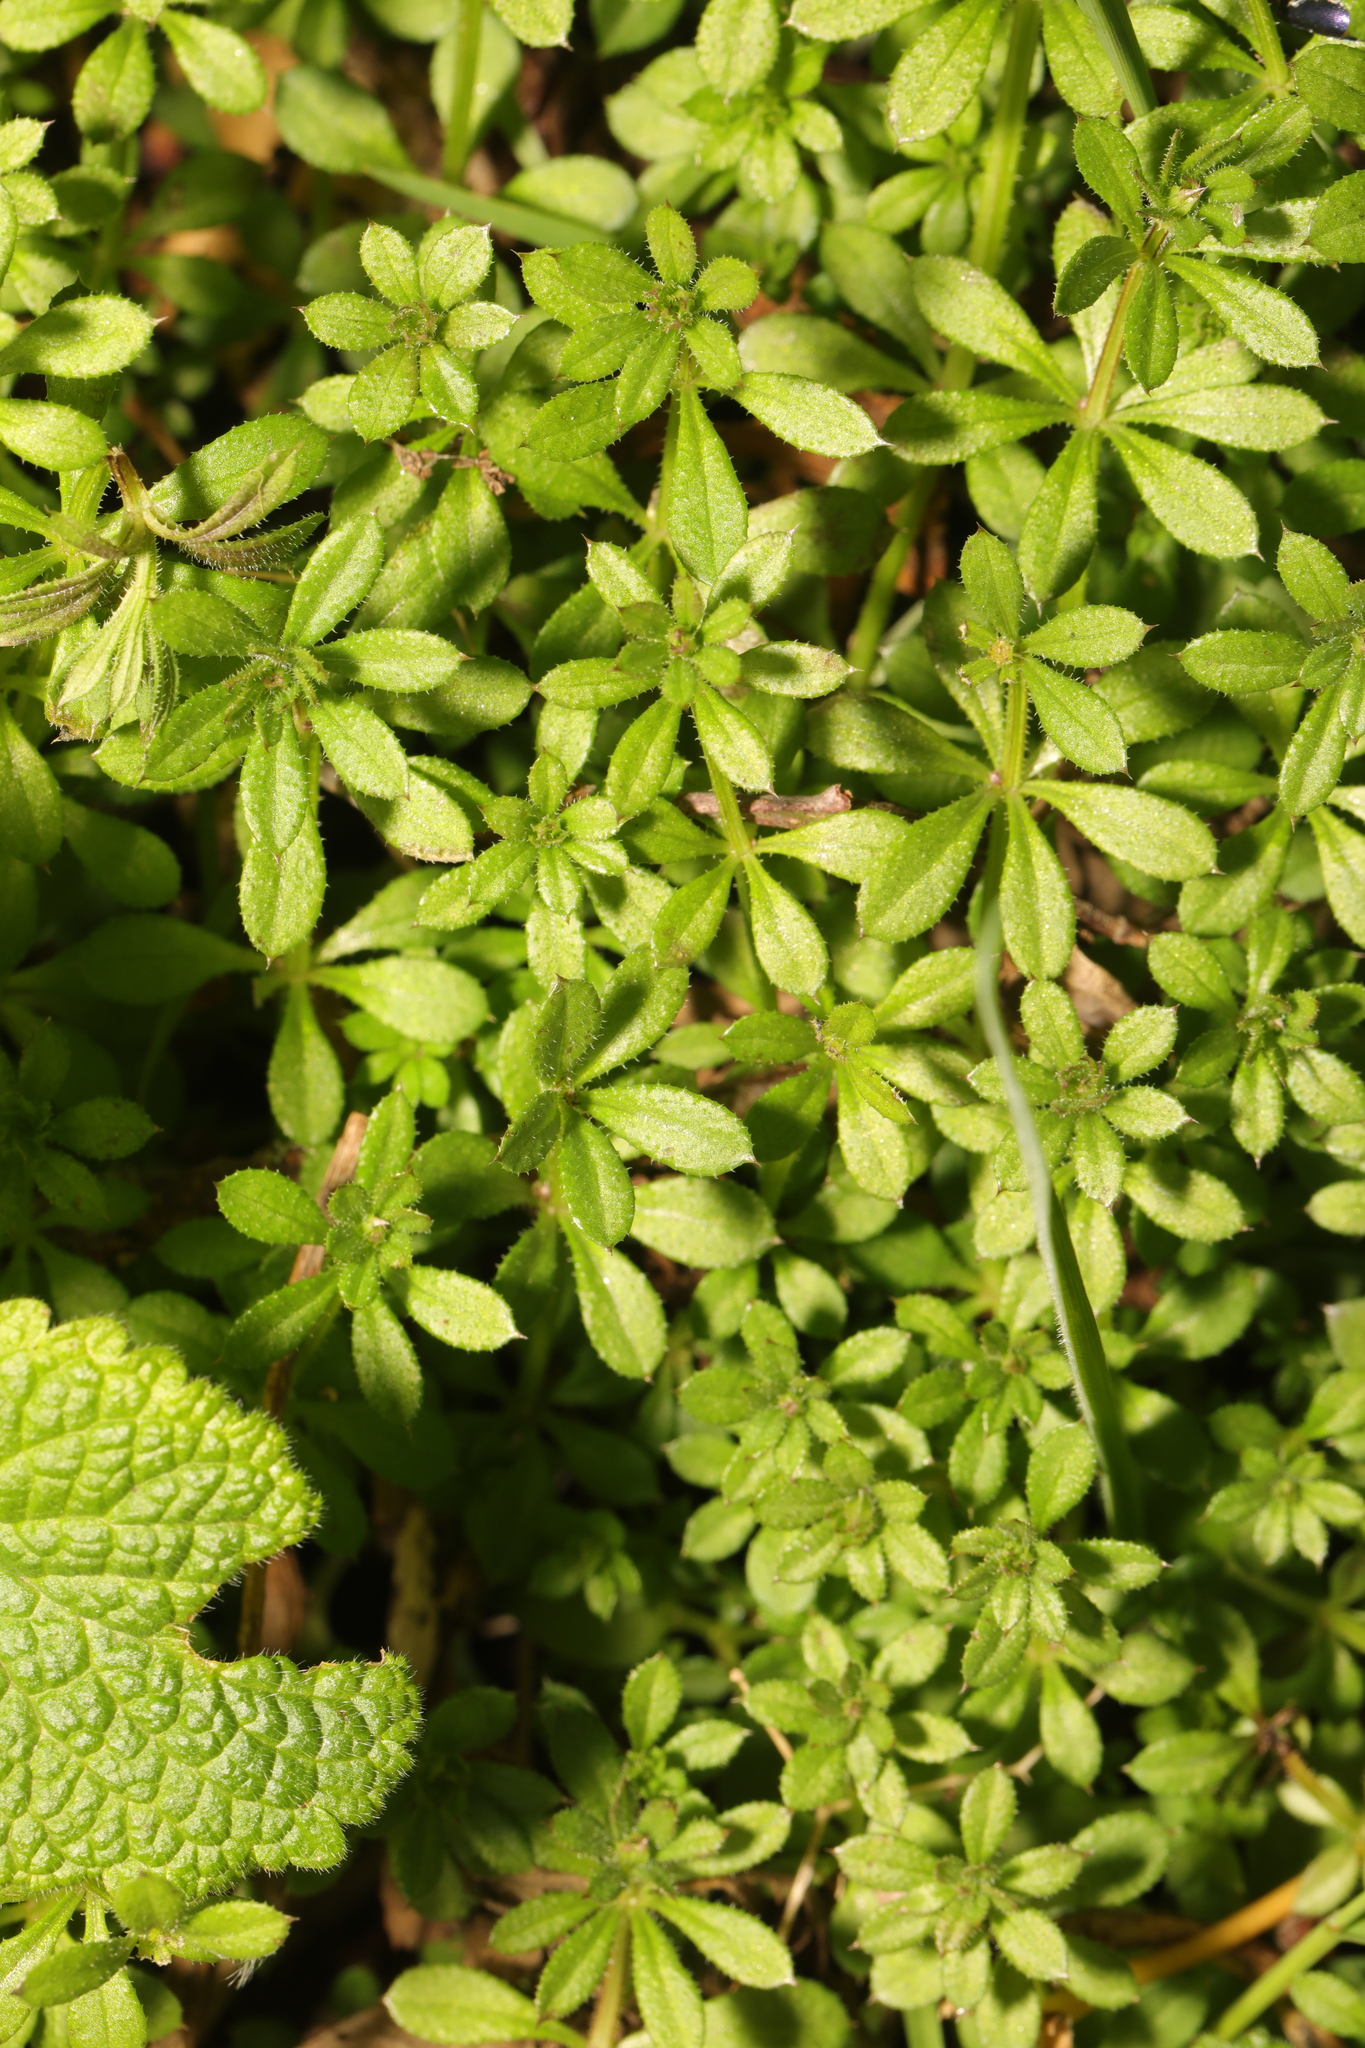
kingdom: Plantae
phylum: Tracheophyta
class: Magnoliopsida
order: Gentianales
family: Rubiaceae
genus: Galium
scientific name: Galium aparine
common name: Cleavers
